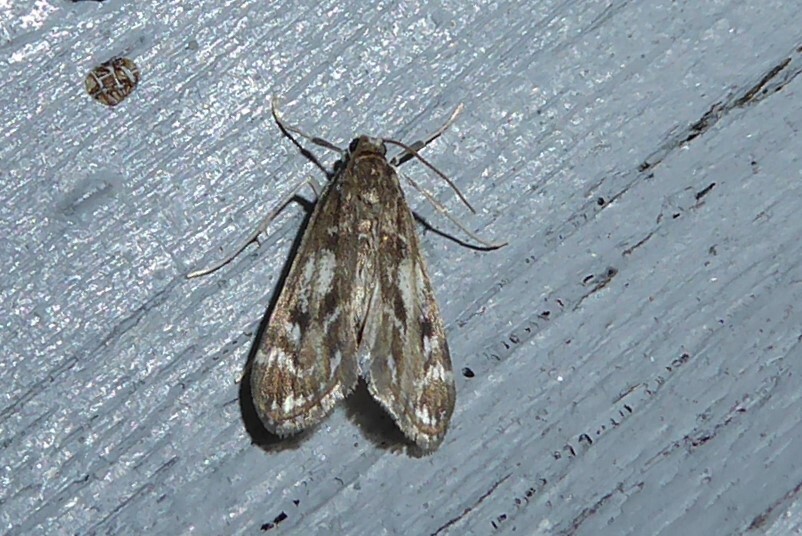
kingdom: Animalia
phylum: Arthropoda
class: Insecta
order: Lepidoptera
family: Crambidae
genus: Hygraula
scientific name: Hygraula nitens
